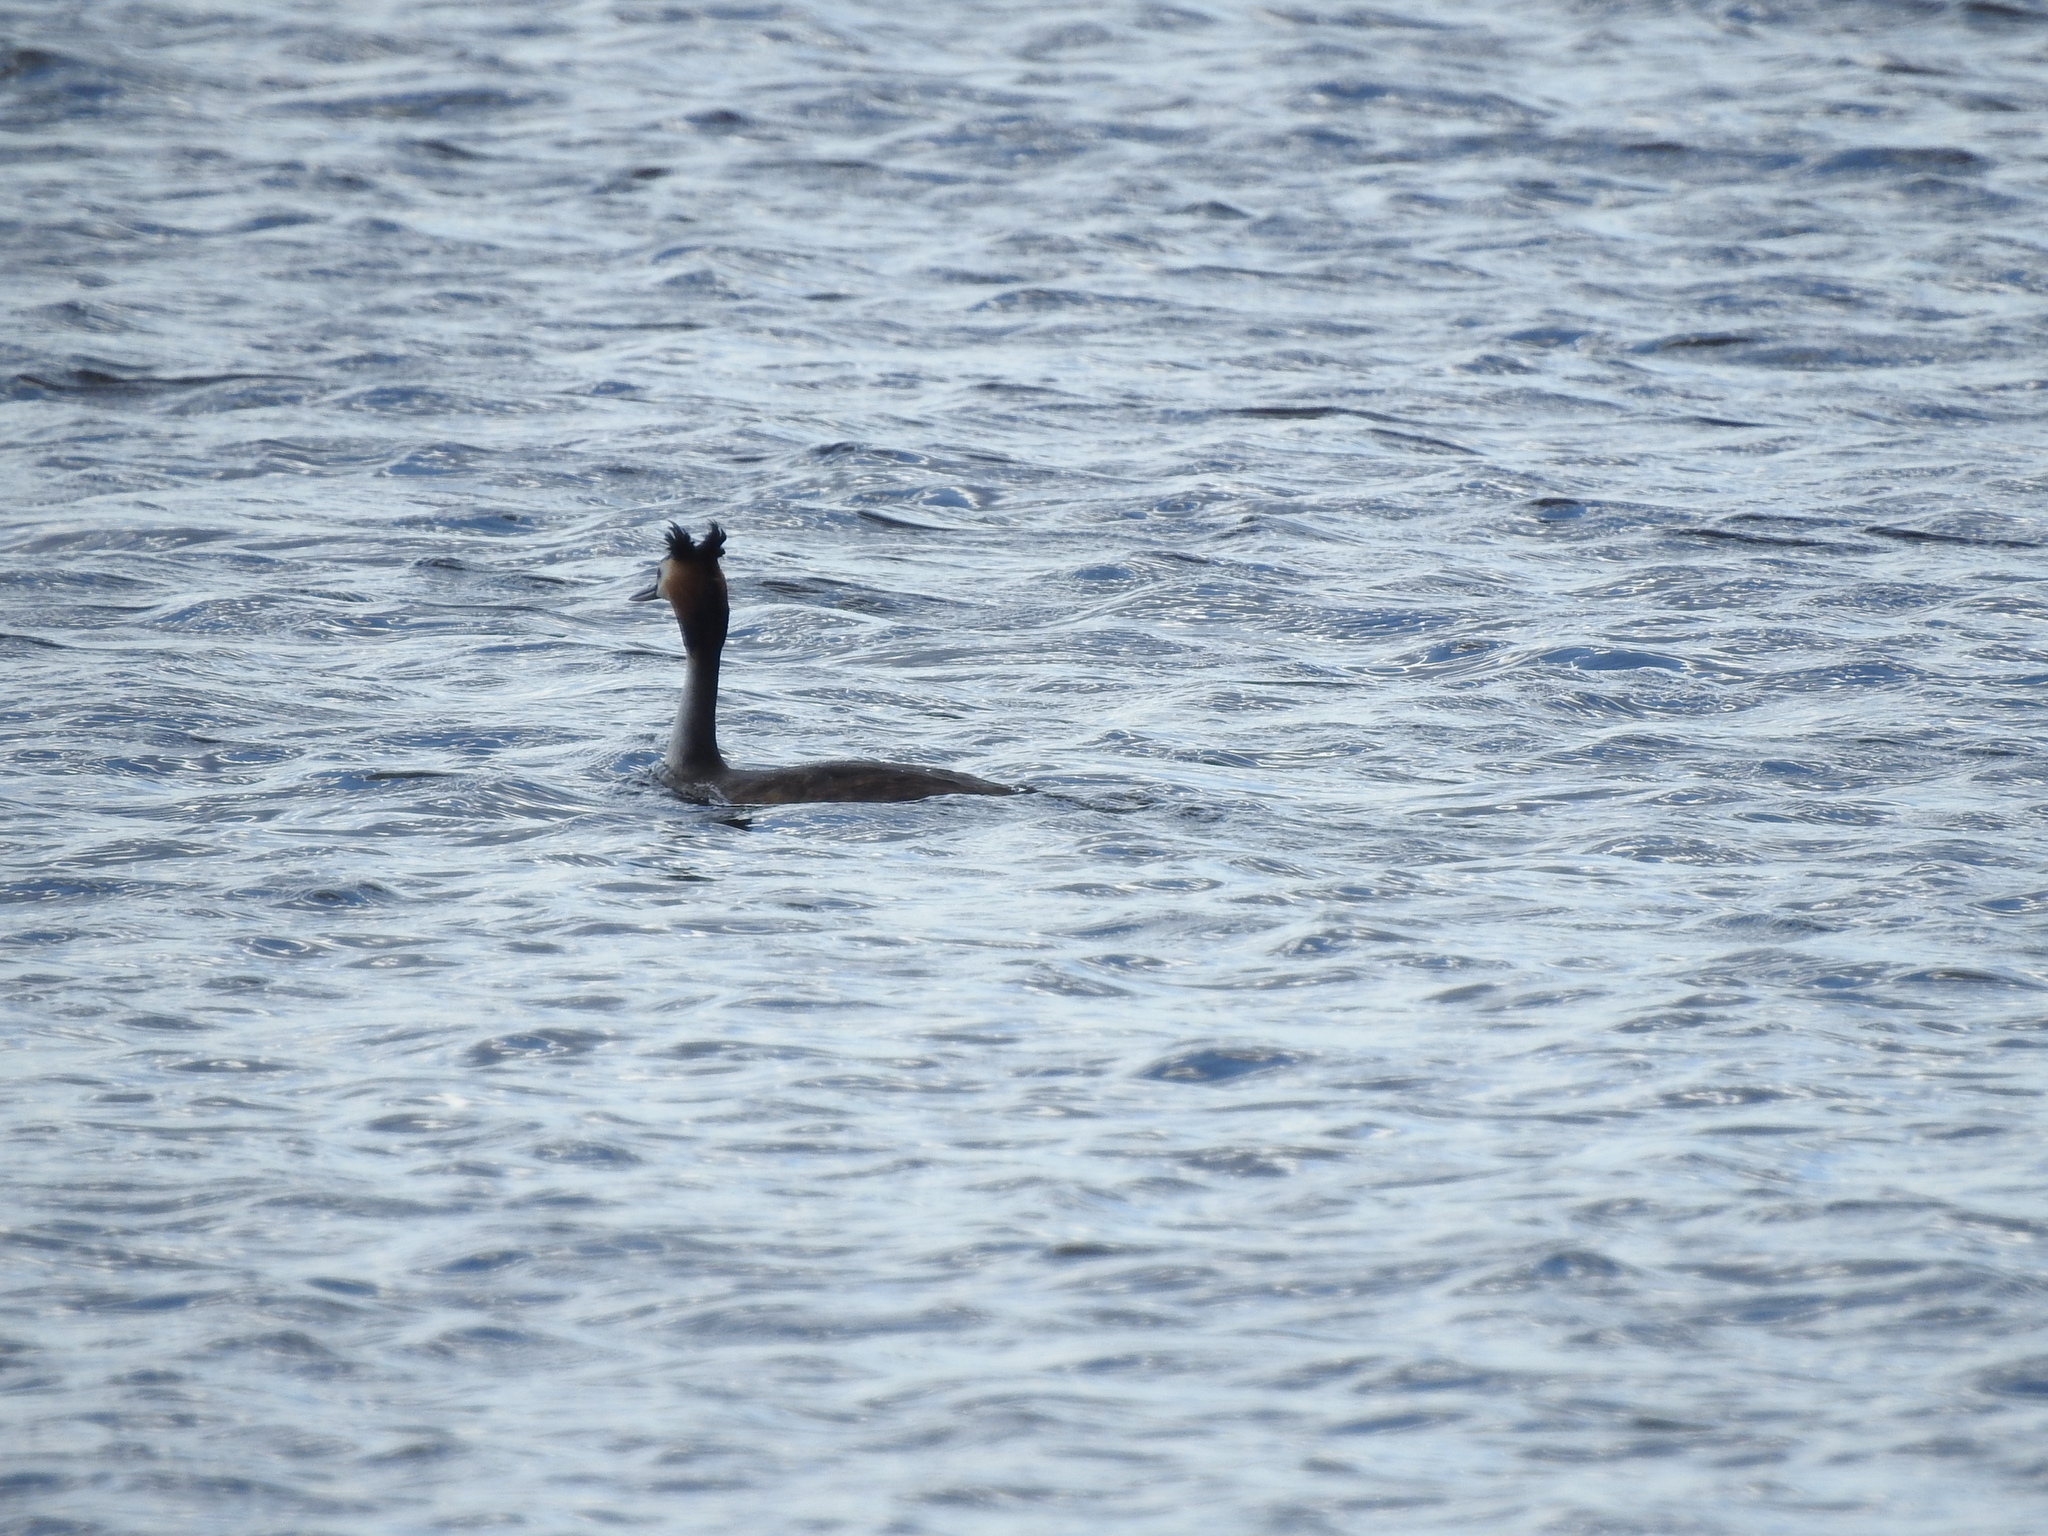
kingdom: Animalia
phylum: Chordata
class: Aves
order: Podicipediformes
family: Podicipedidae
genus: Podiceps
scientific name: Podiceps cristatus
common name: Great crested grebe
